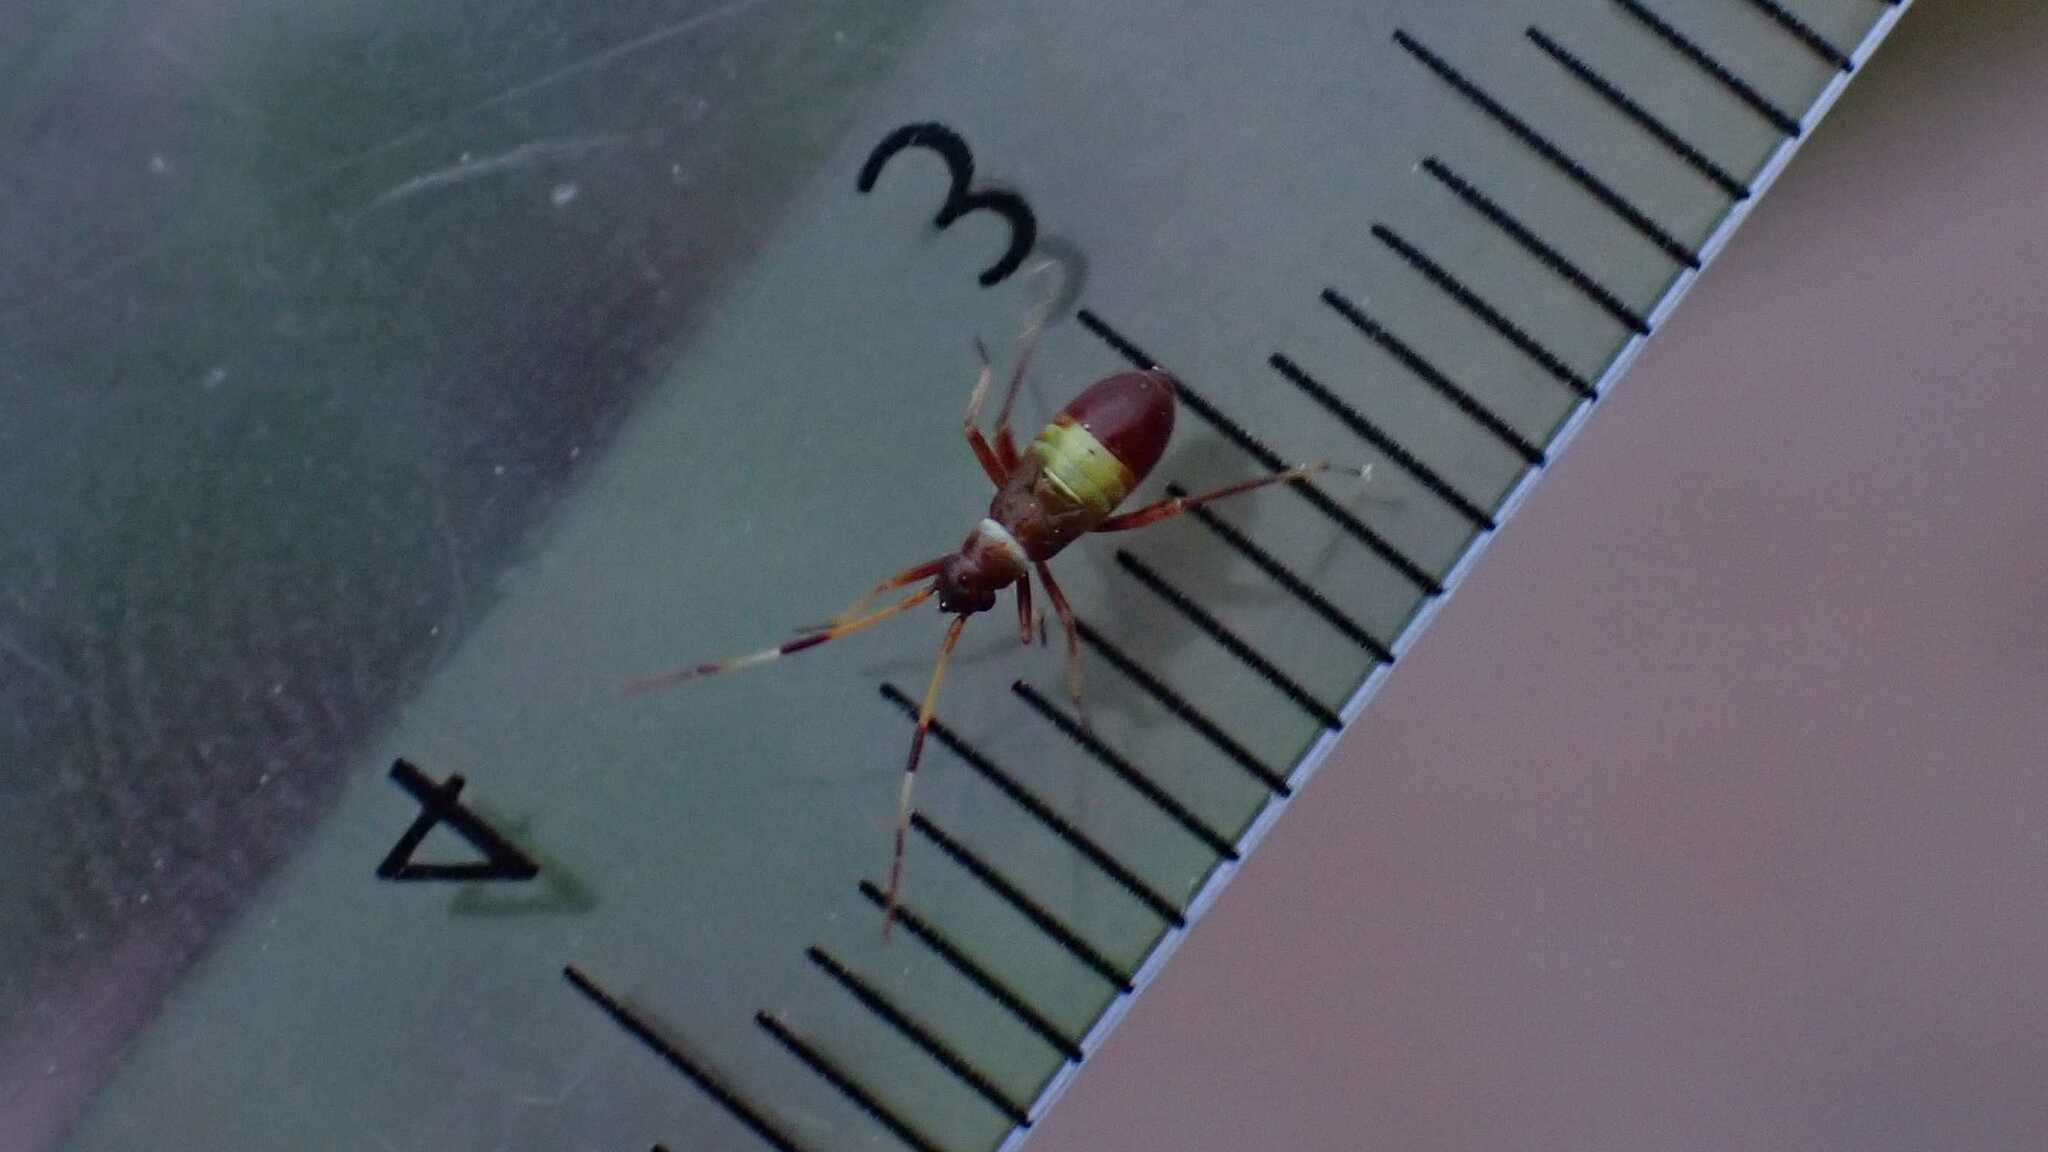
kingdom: Animalia
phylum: Arthropoda
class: Insecta
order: Hemiptera
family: Miridae
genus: Closterotomus
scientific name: Closterotomus biclavatus
